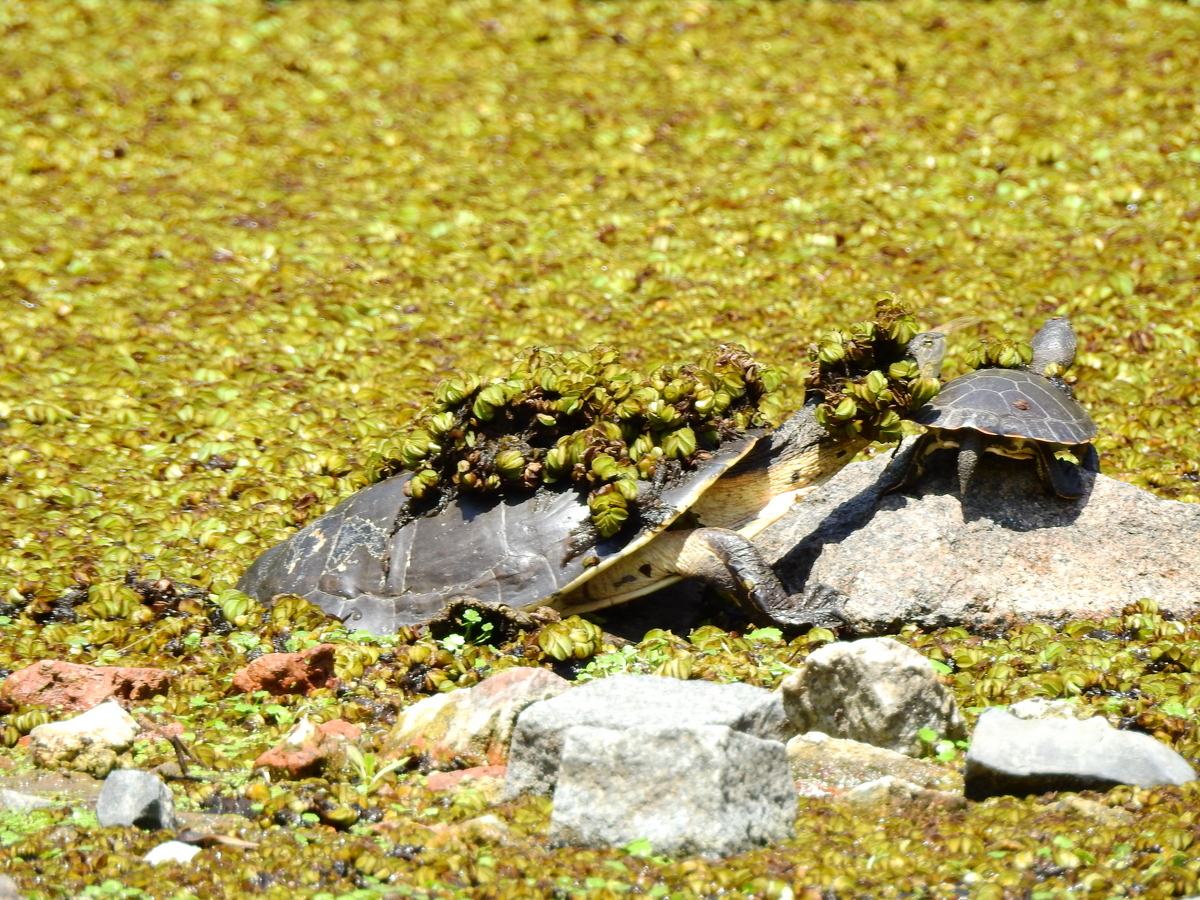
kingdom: Animalia
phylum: Chordata
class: Testudines
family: Chelidae
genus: Phrynops
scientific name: Phrynops hilarii
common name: Side-necked turtle of saint hillaire
